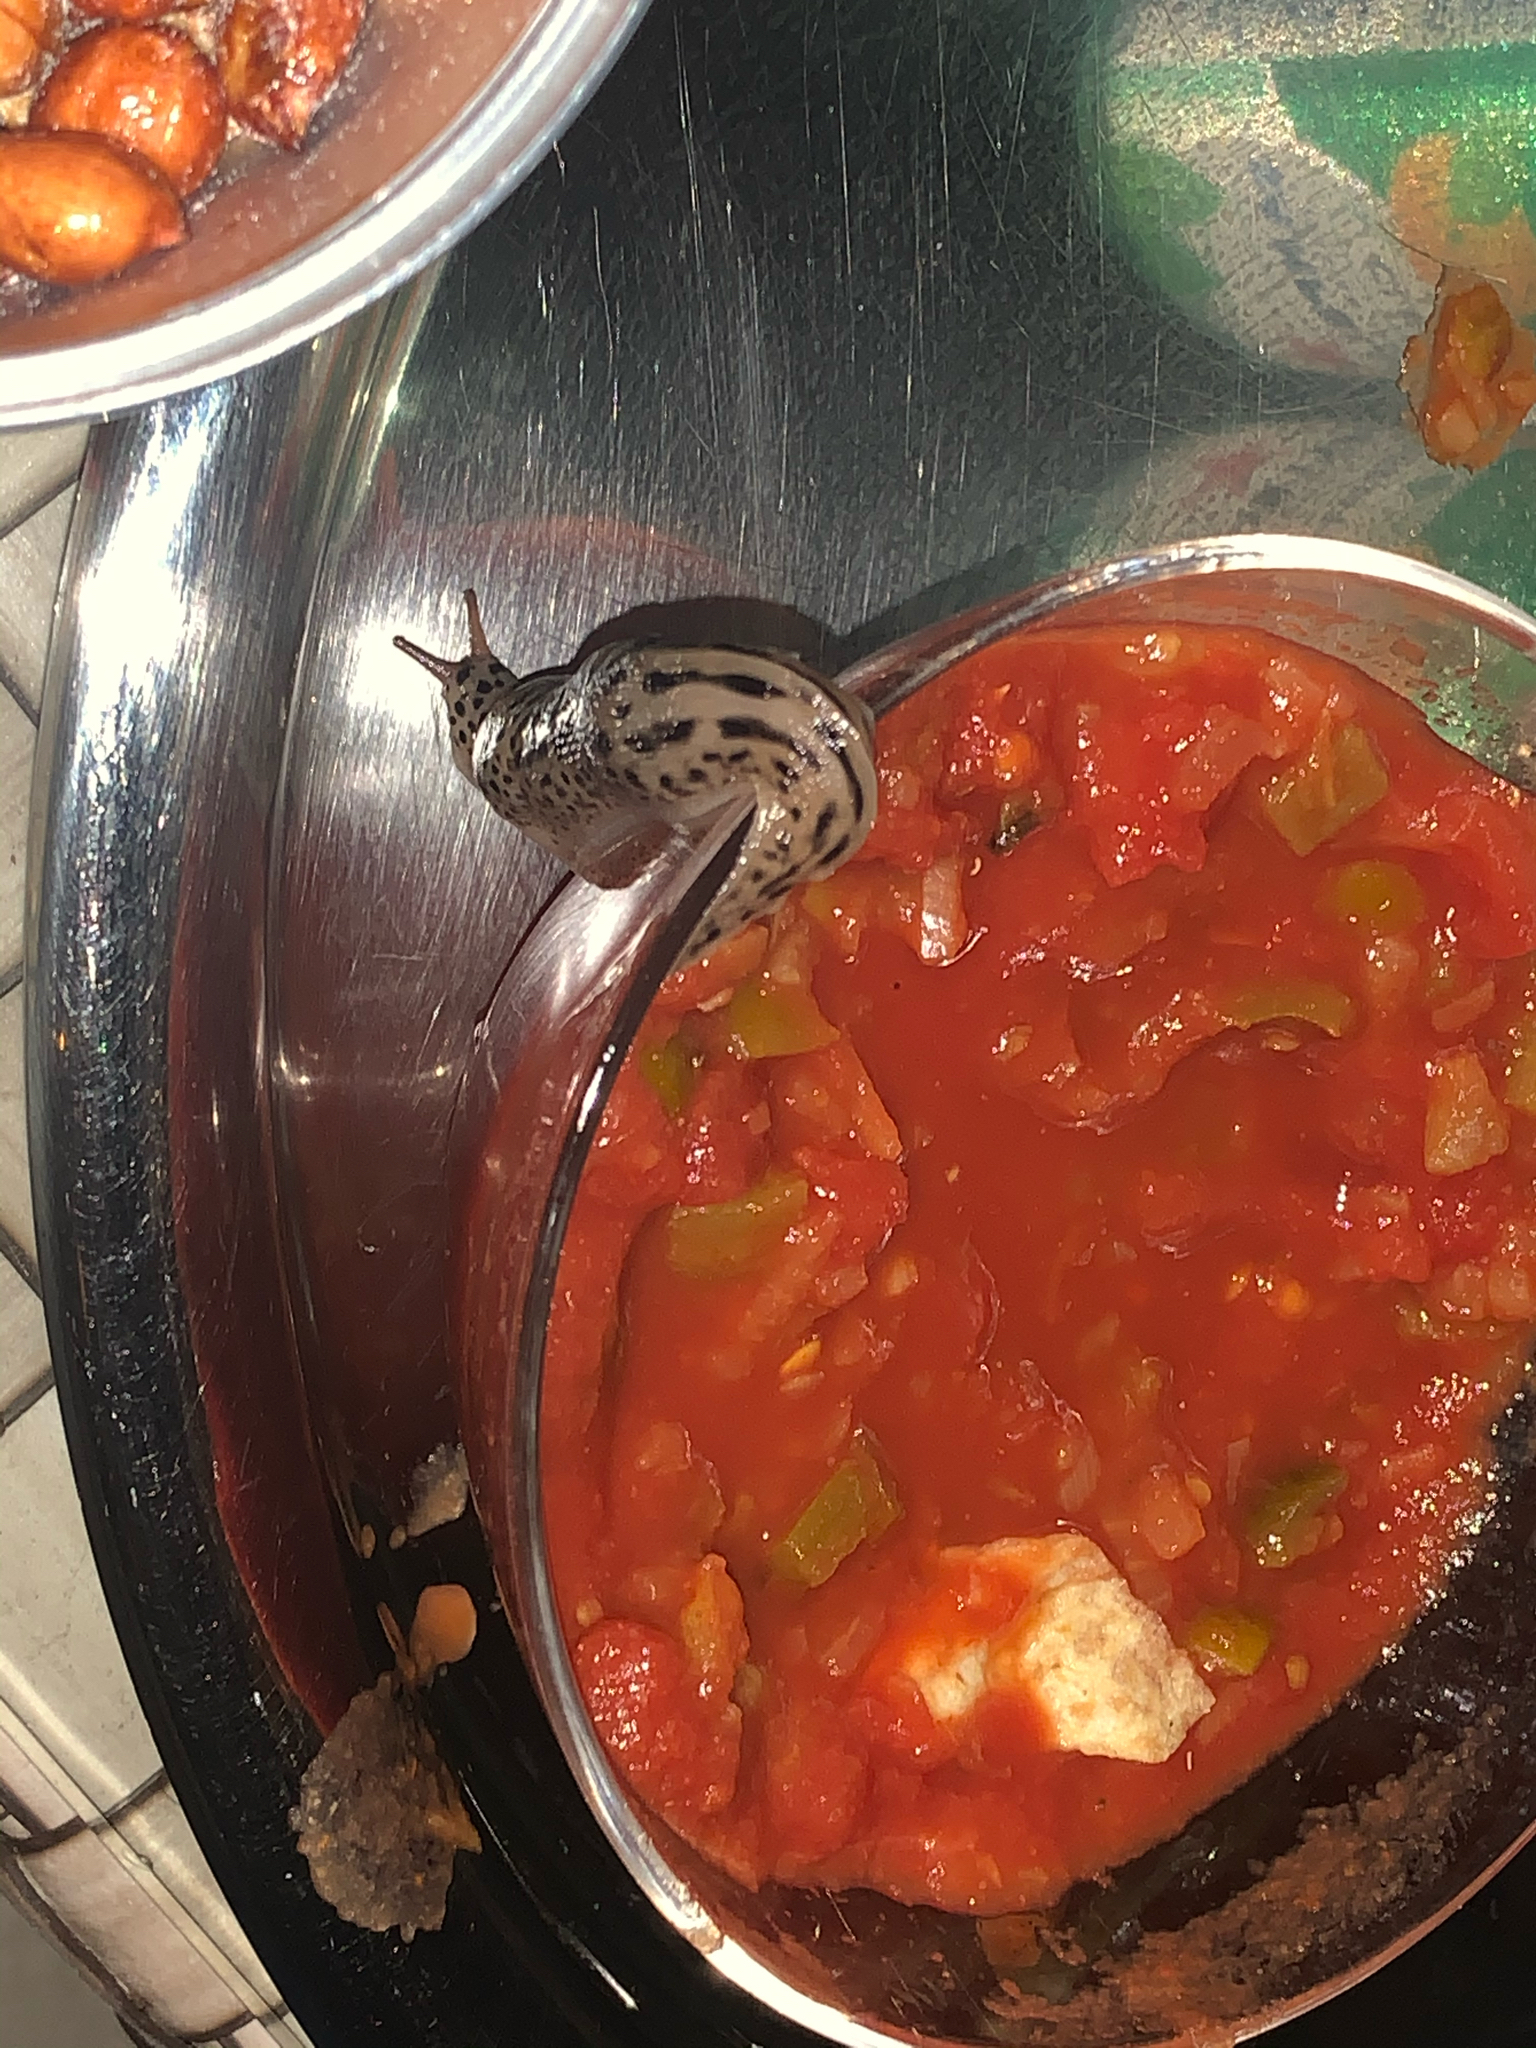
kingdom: Animalia
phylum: Mollusca
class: Gastropoda
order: Stylommatophora
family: Limacidae
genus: Limax
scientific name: Limax maximus
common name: Great grey slug
